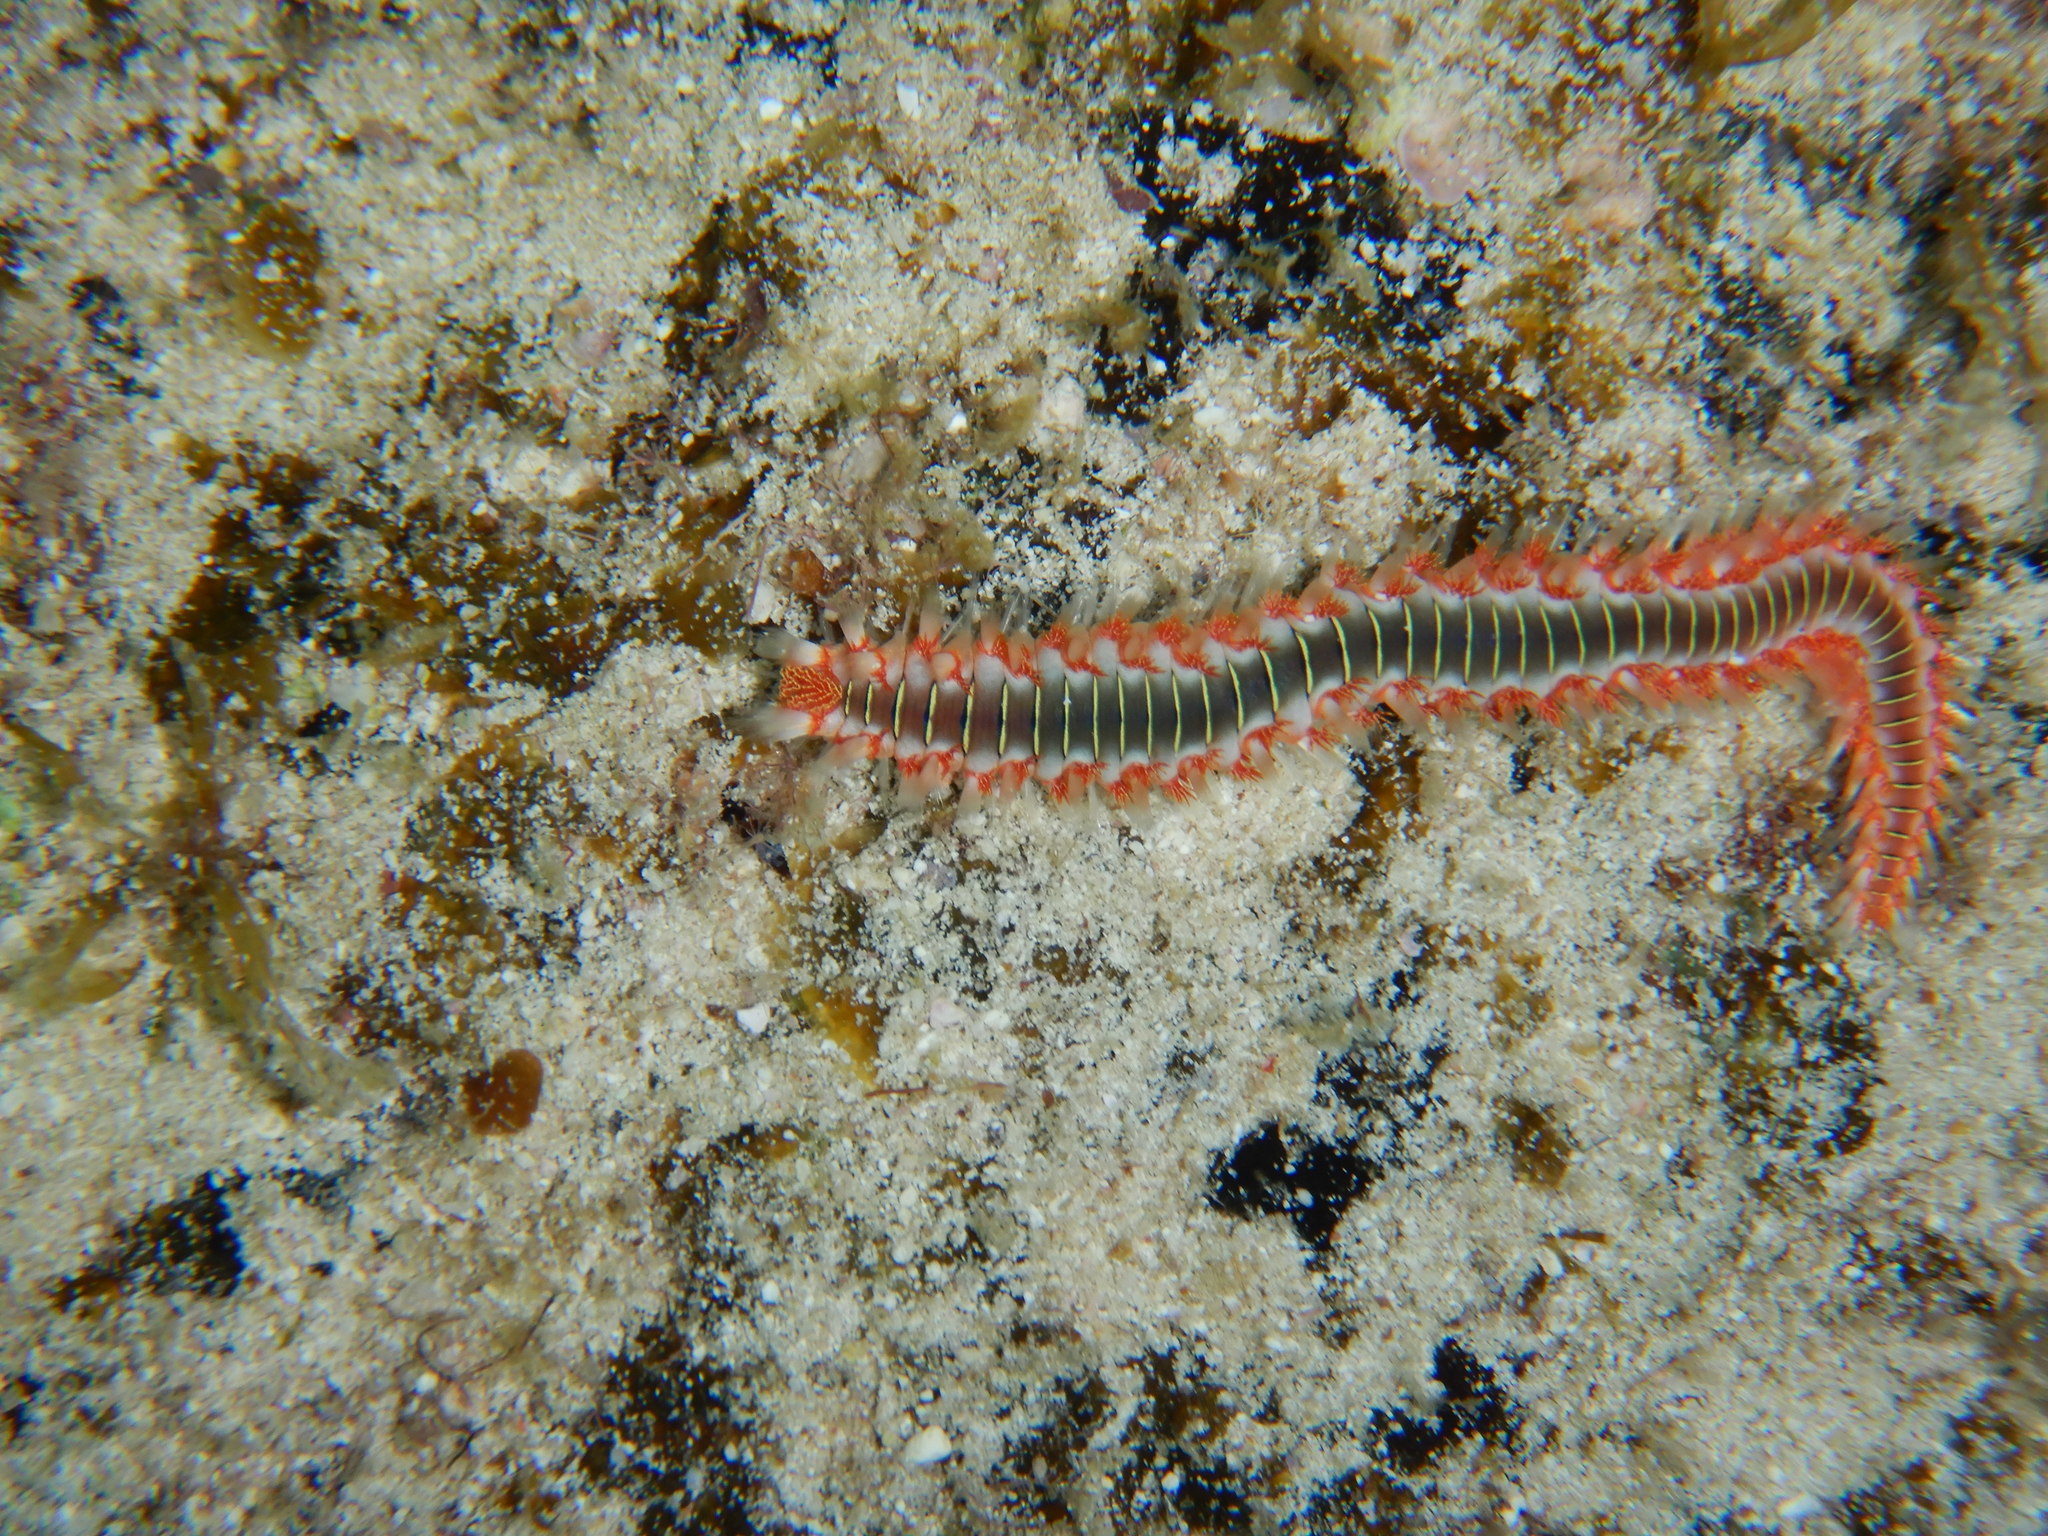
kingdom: Animalia
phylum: Annelida
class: Polychaeta
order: Amphinomida
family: Amphinomidae
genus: Hermodice
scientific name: Hermodice carunculata
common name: Bearded fireworm
